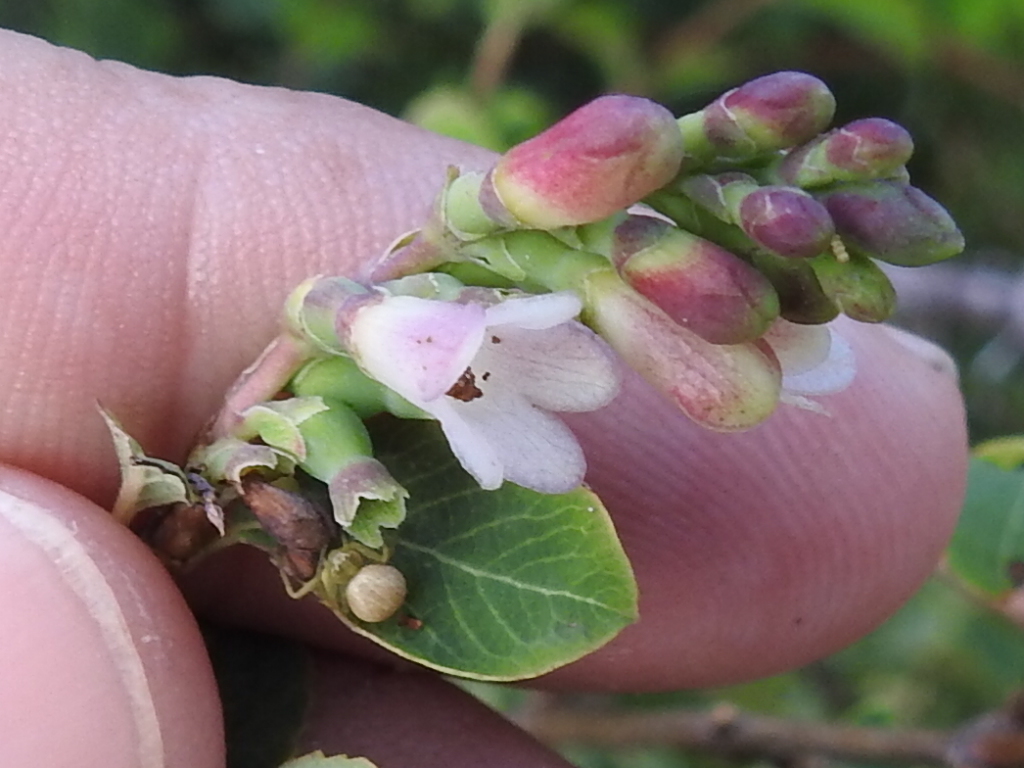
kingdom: Plantae
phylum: Tracheophyta
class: Magnoliopsida
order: Dipsacales
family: Caprifoliaceae
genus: Symphoricarpos
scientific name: Symphoricarpos rotundifolius
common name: Round-leaved snowberry
